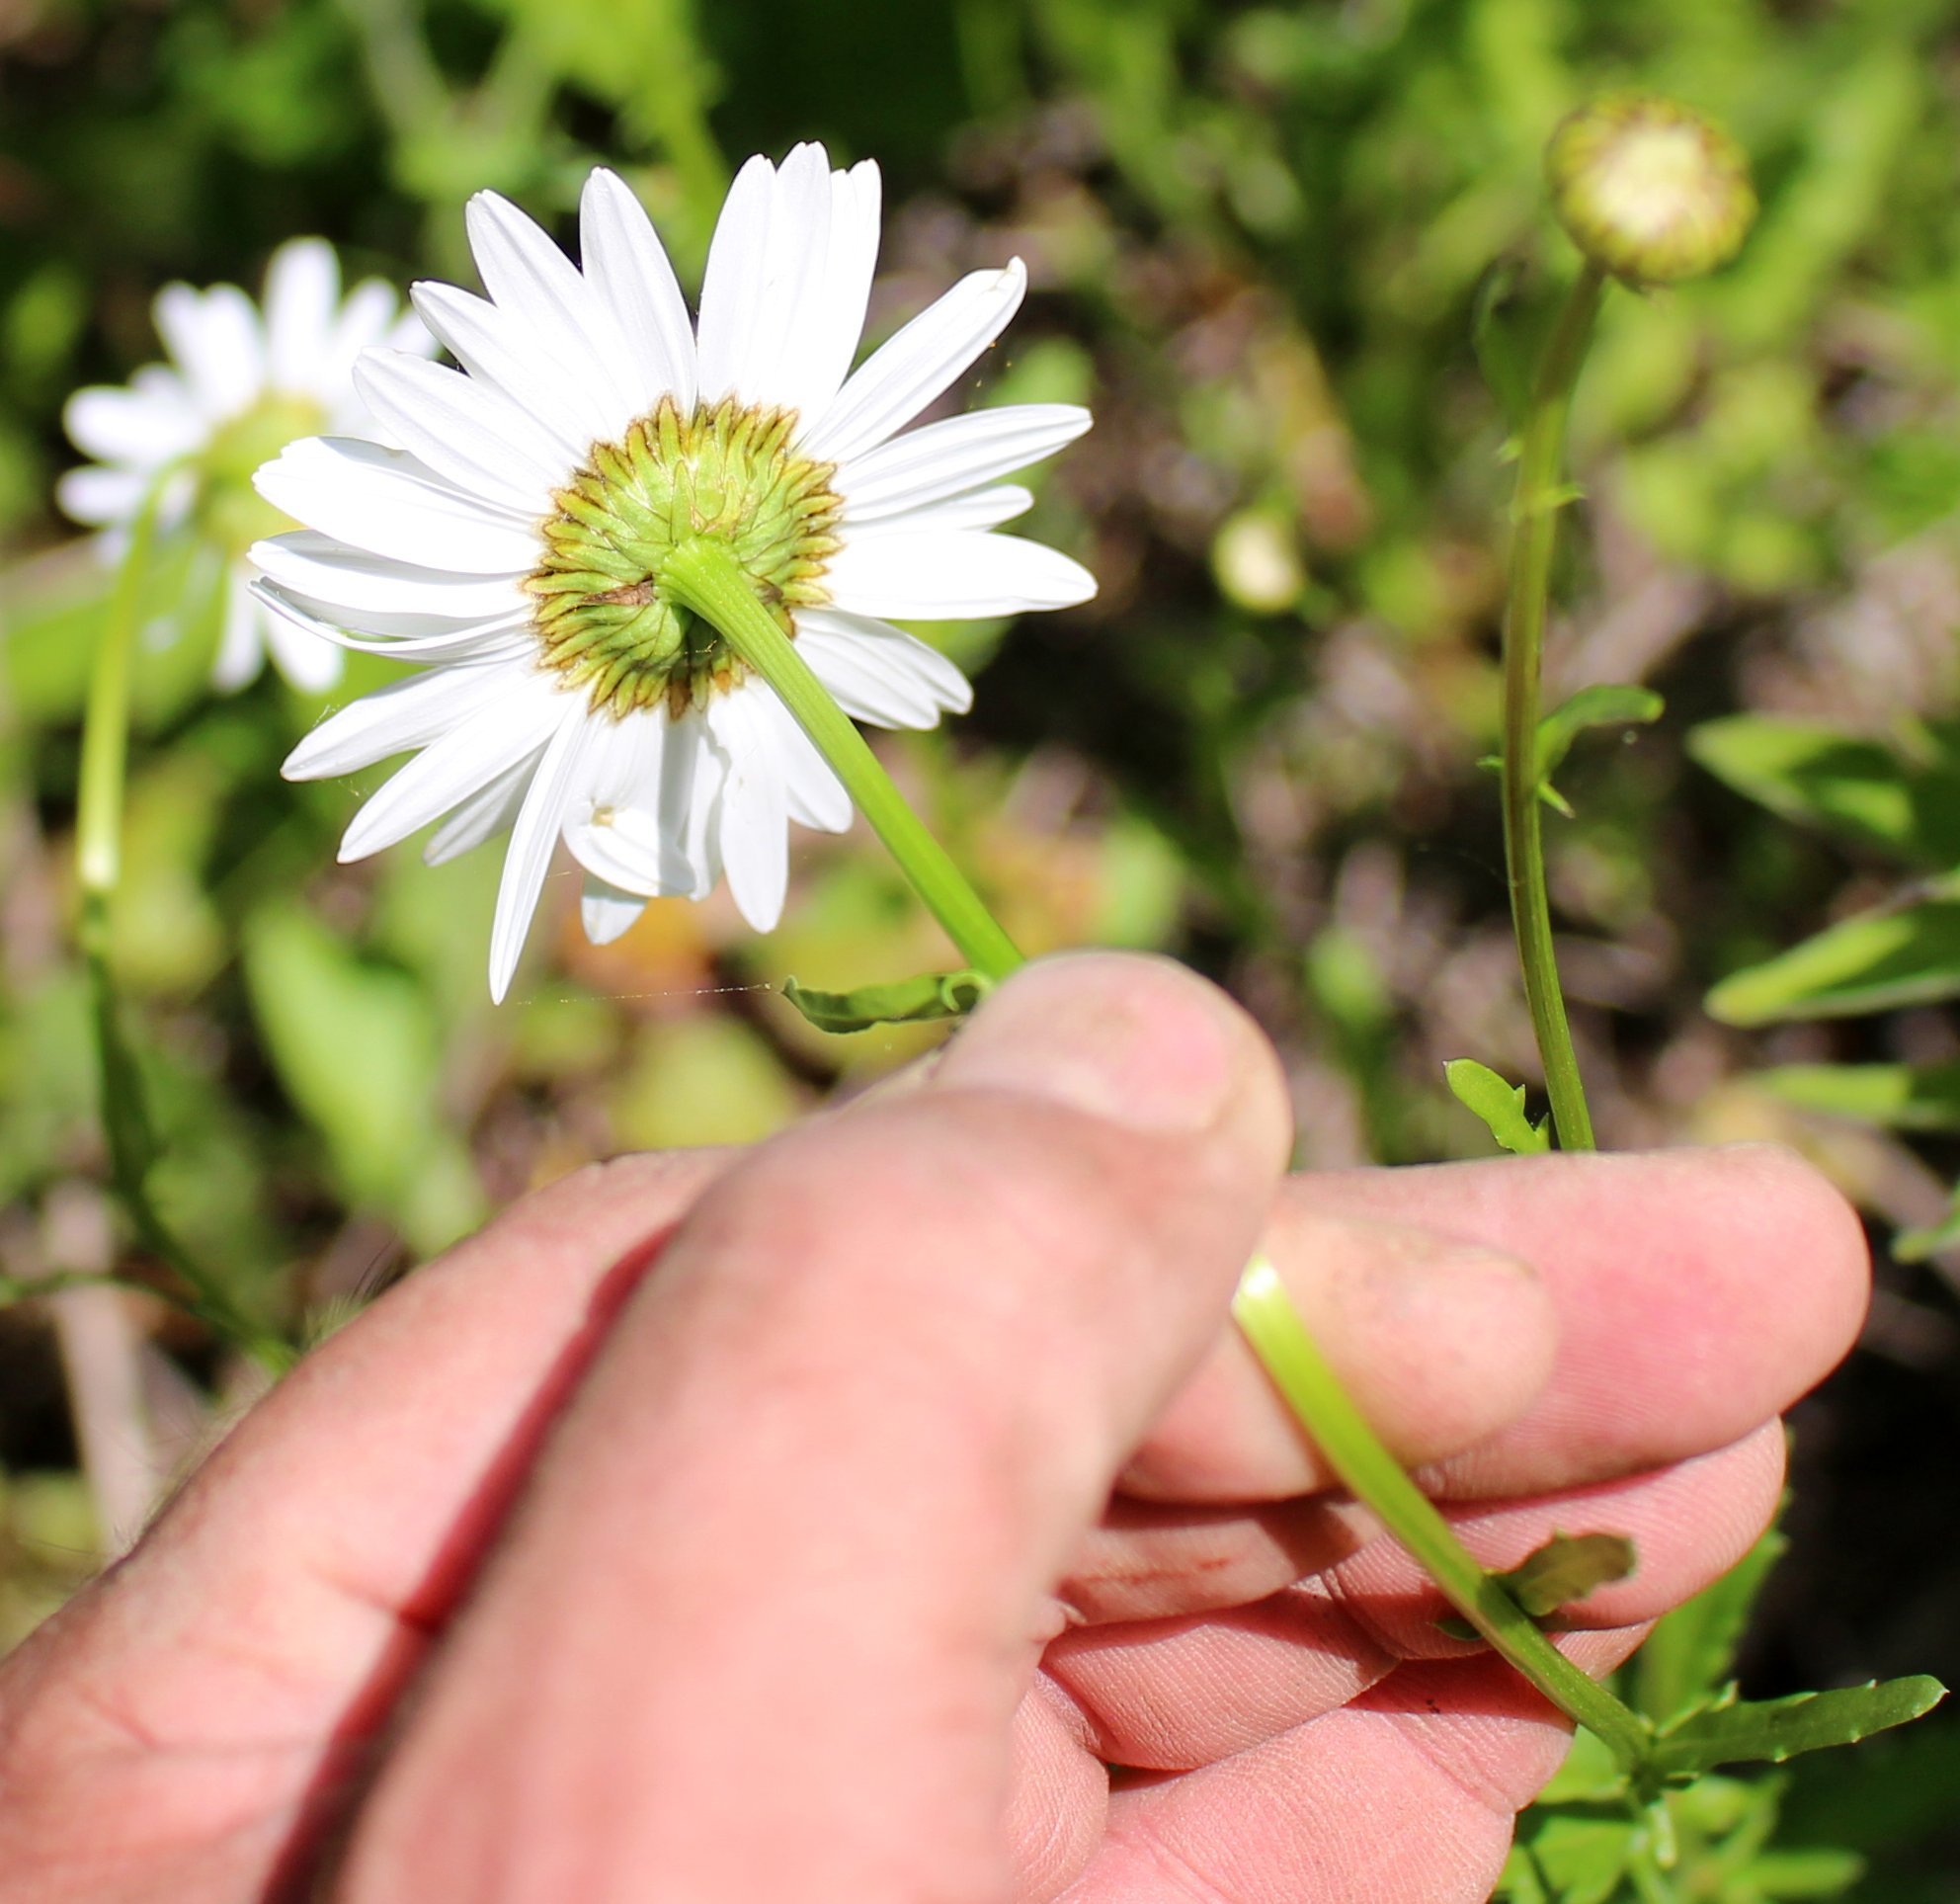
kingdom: Plantae
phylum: Tracheophyta
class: Magnoliopsida
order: Asterales
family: Asteraceae
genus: Leucanthemum
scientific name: Leucanthemum vulgare
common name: Oxeye daisy
